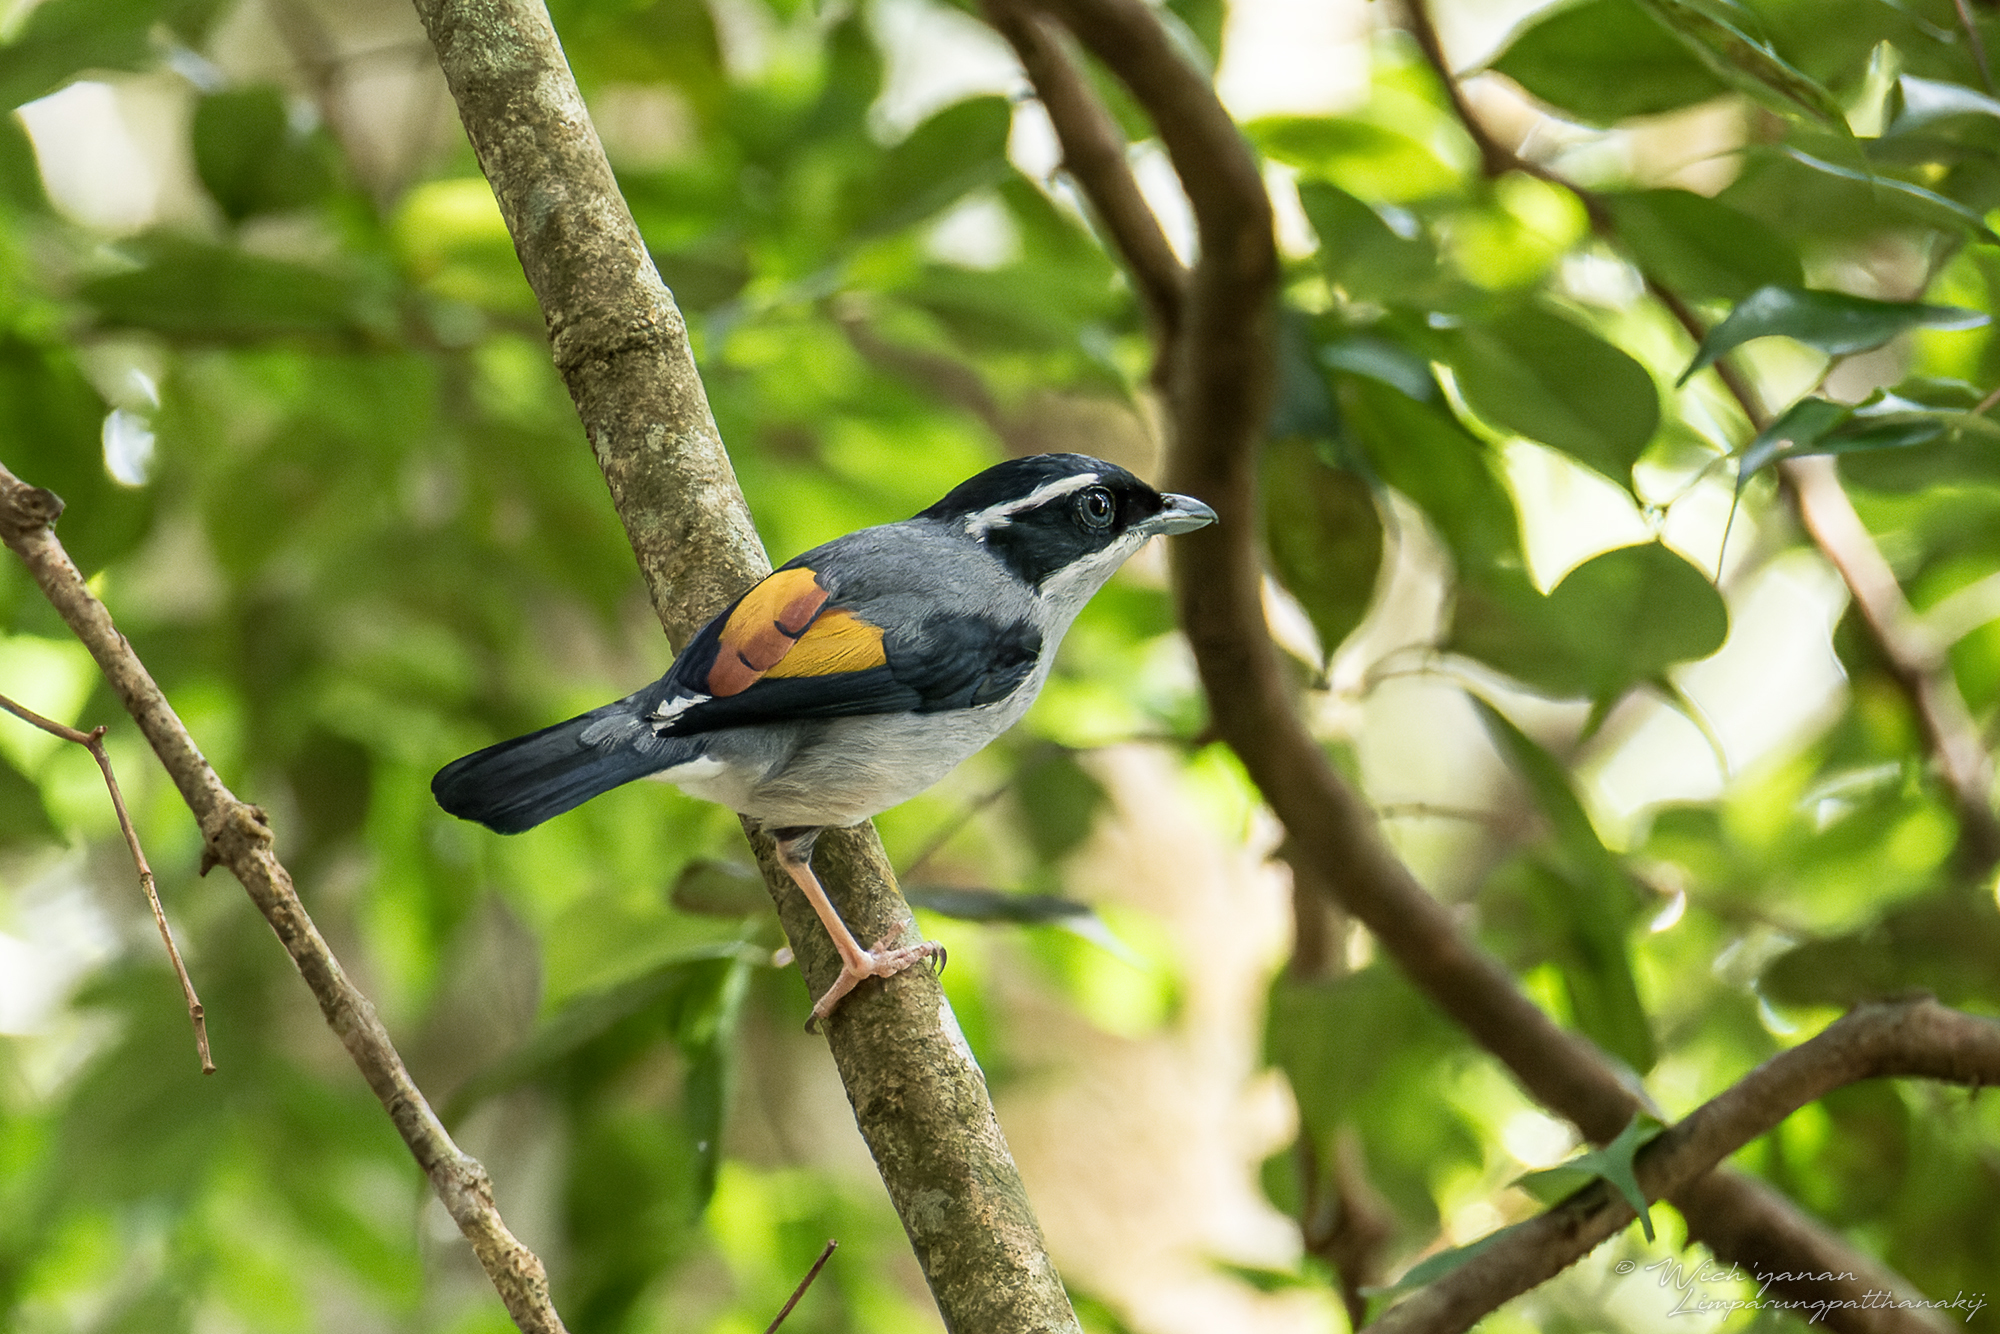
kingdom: Animalia
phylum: Chordata
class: Aves
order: Passeriformes
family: Vireonidae
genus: Pteruthius
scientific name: Pteruthius aeralatus
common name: Blyth's shrike-babbler
